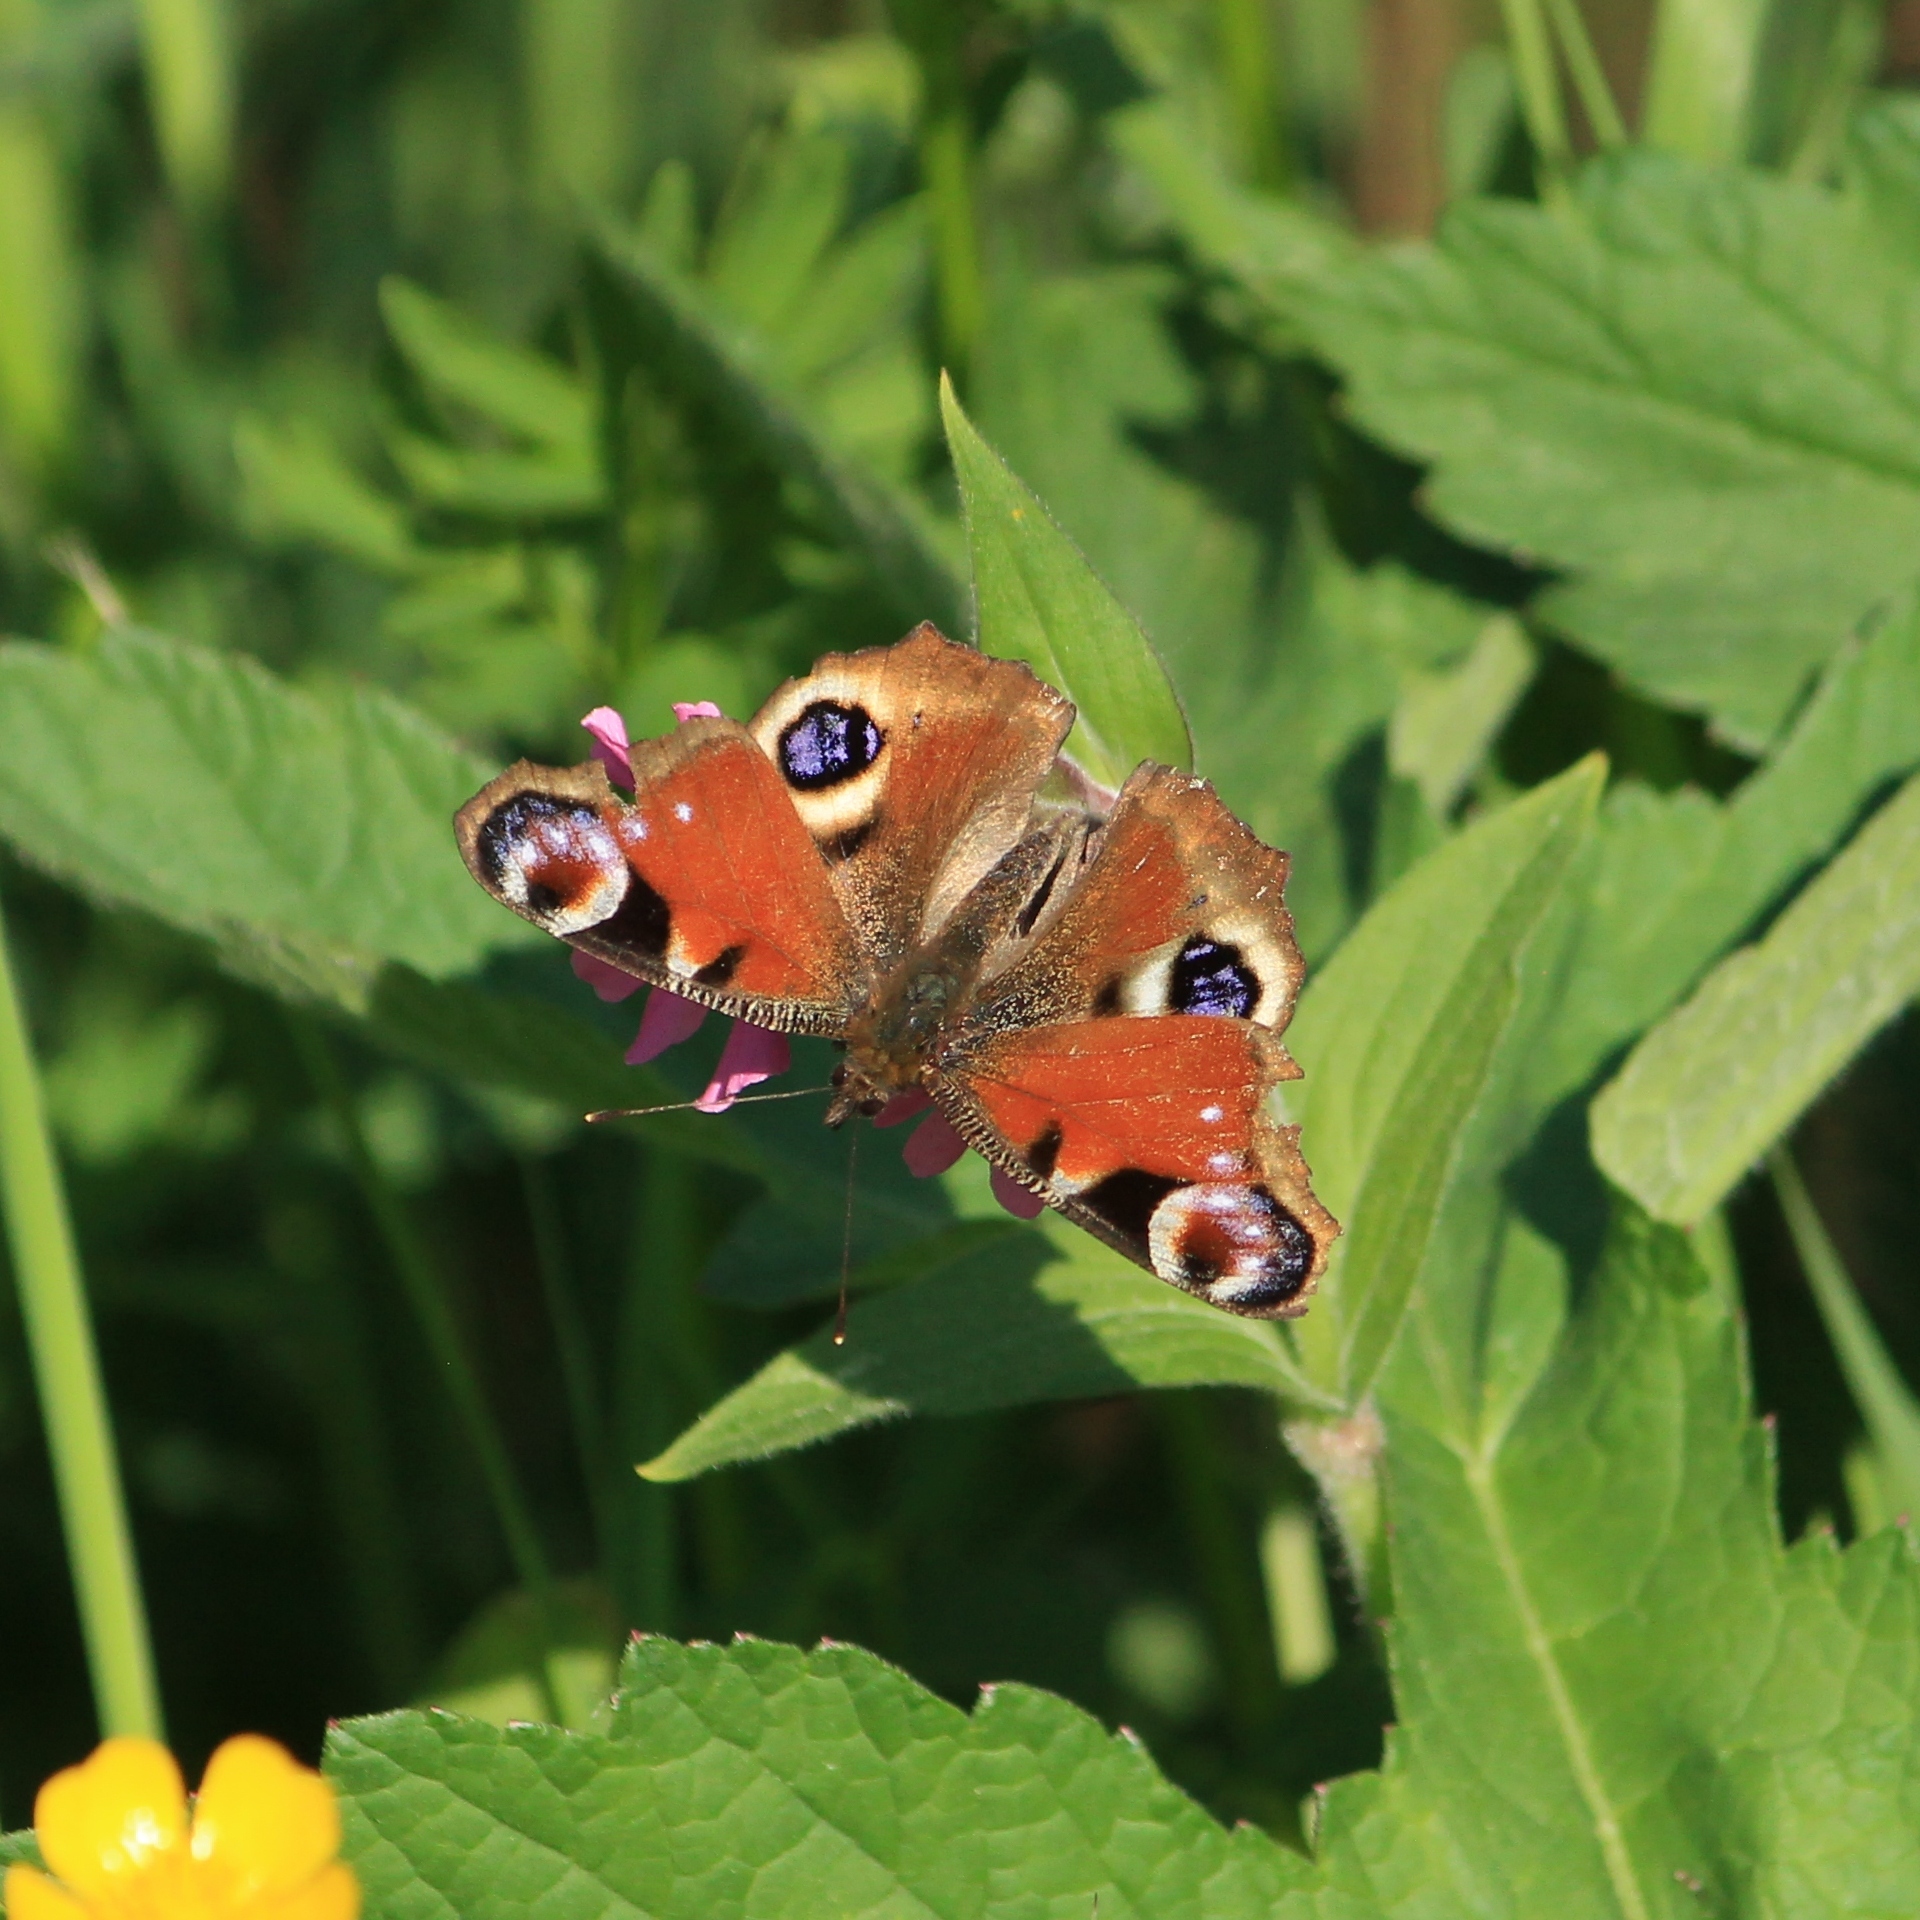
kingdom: Animalia
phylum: Arthropoda
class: Insecta
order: Lepidoptera
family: Nymphalidae
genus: Aglais
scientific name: Aglais io
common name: Peacock
